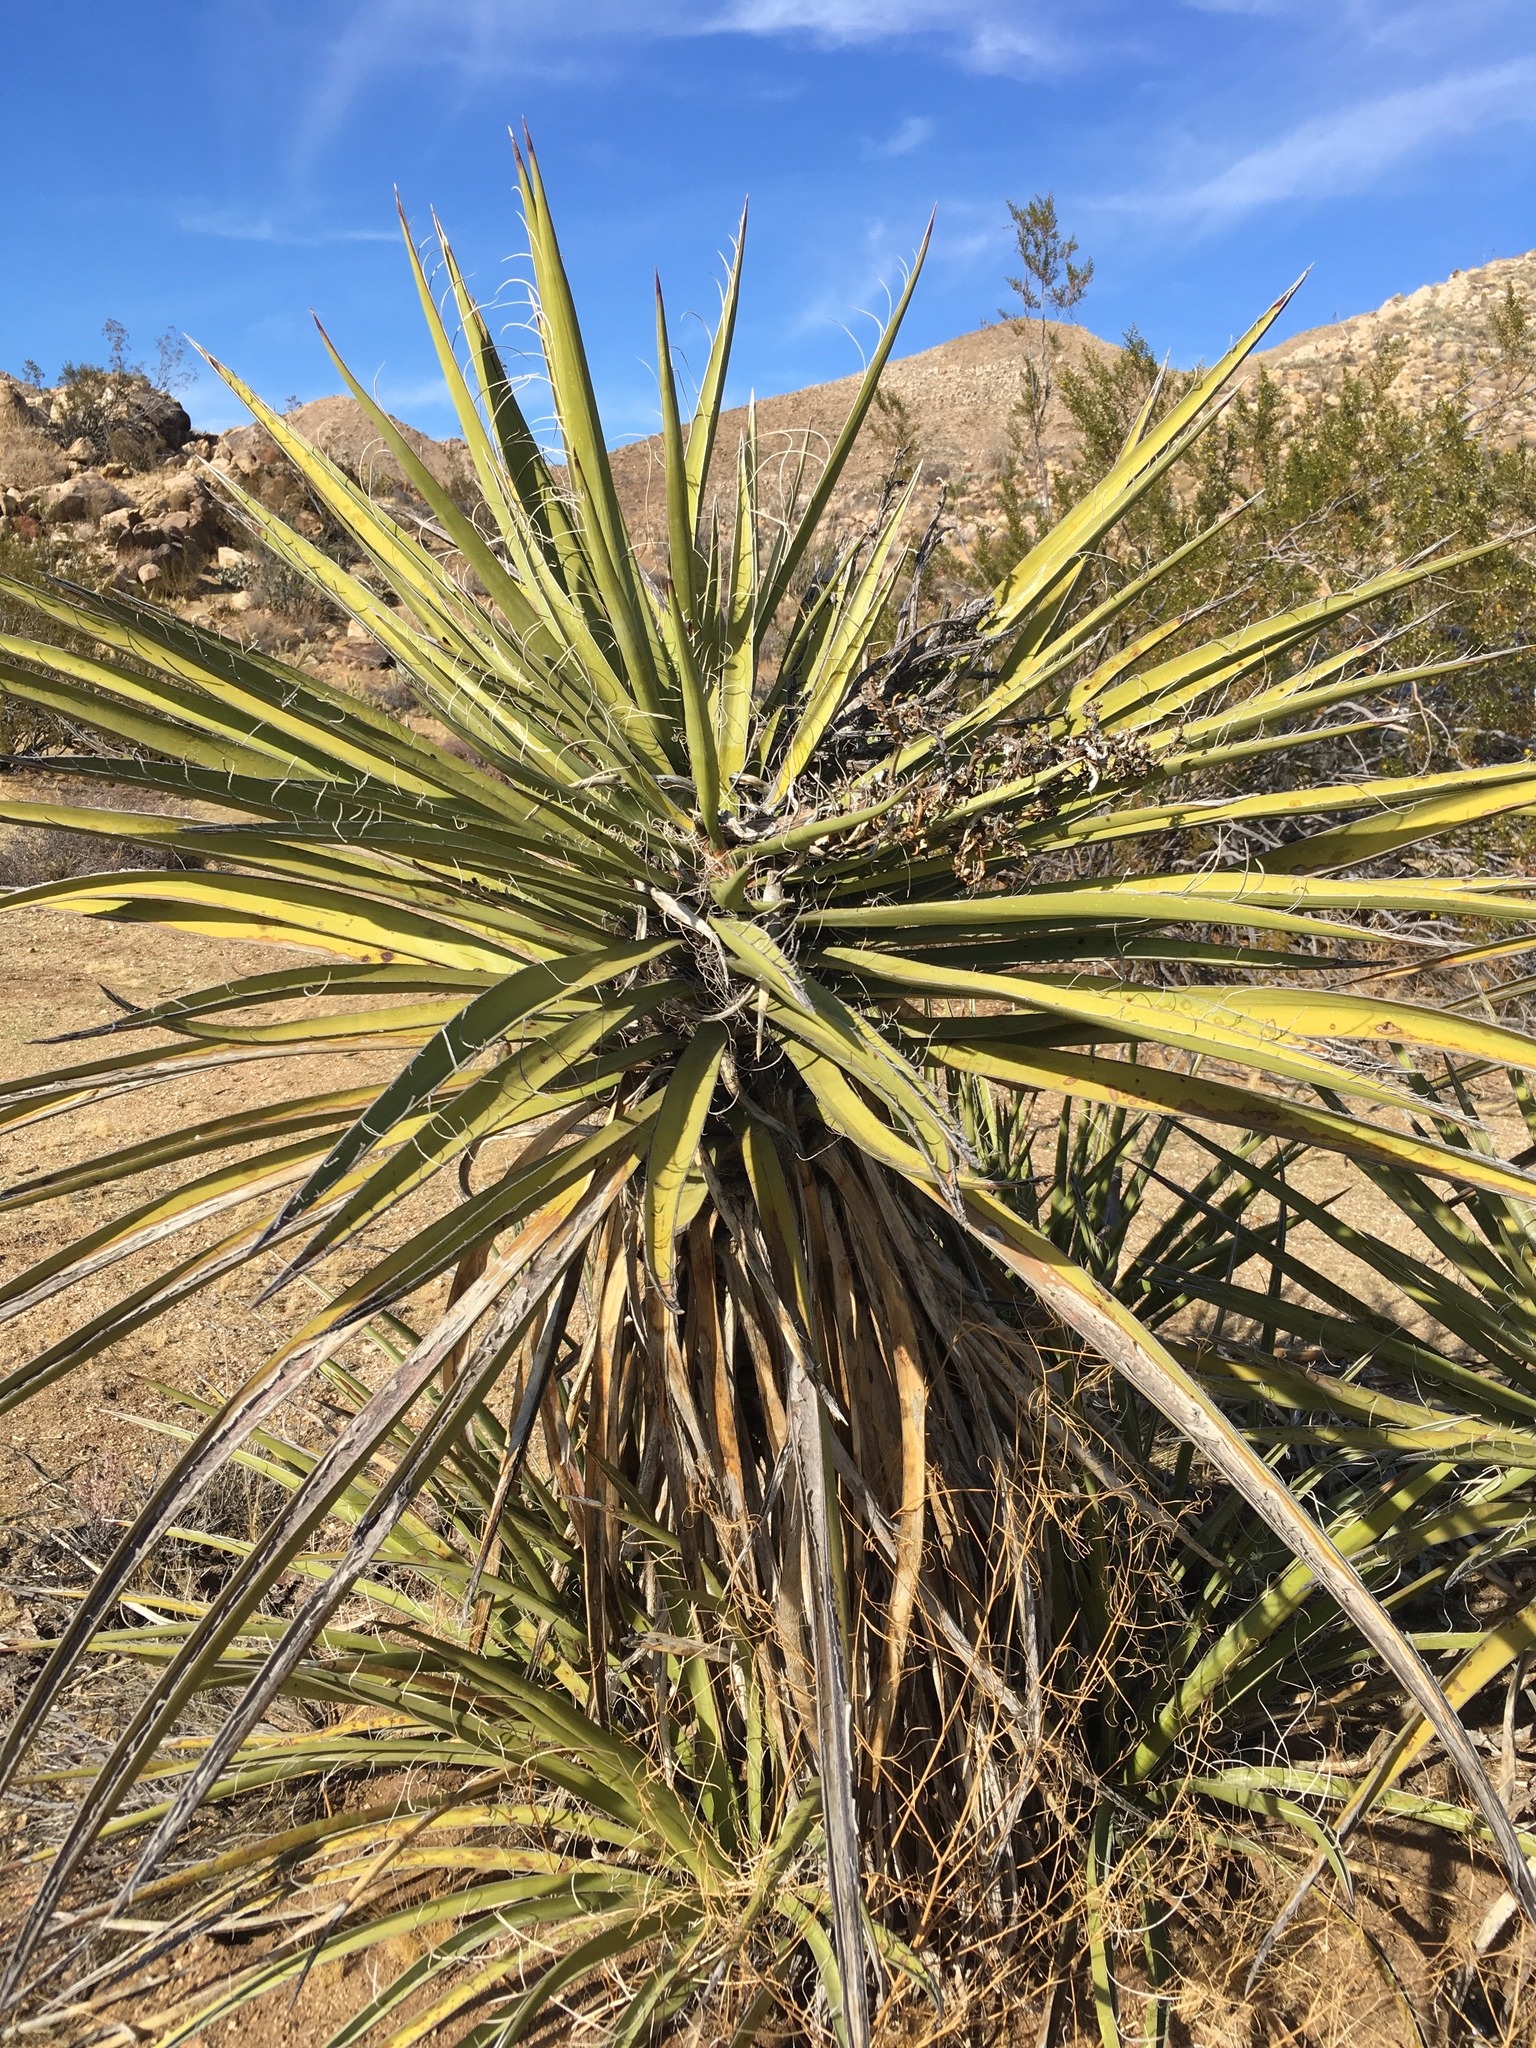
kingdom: Plantae
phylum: Tracheophyta
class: Liliopsida
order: Asparagales
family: Asparagaceae
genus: Yucca
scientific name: Yucca schidigera
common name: Mojave yucca
